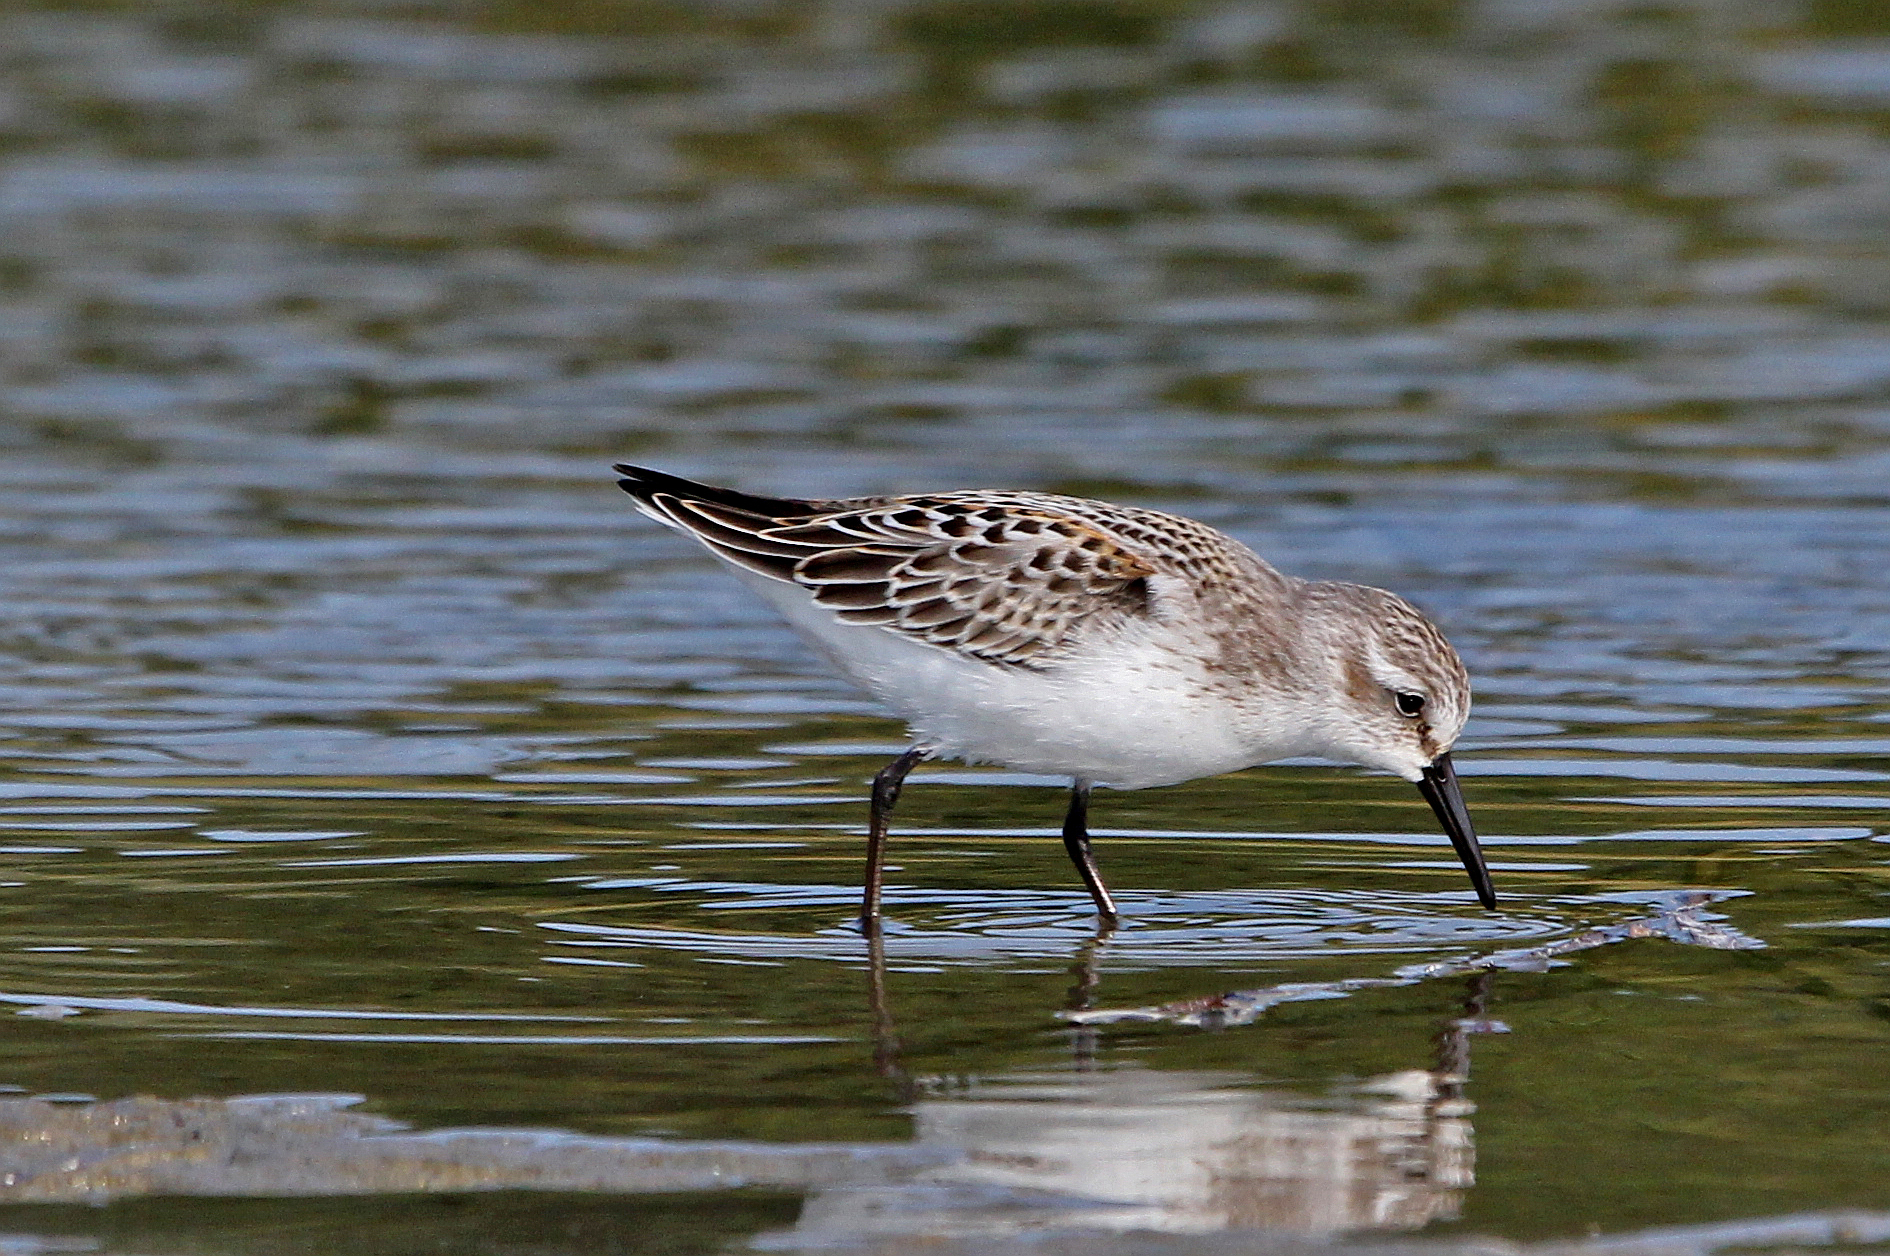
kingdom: Animalia
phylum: Chordata
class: Aves
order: Charadriiformes
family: Scolopacidae
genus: Calidris
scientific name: Calidris mauri
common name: Western sandpiper
